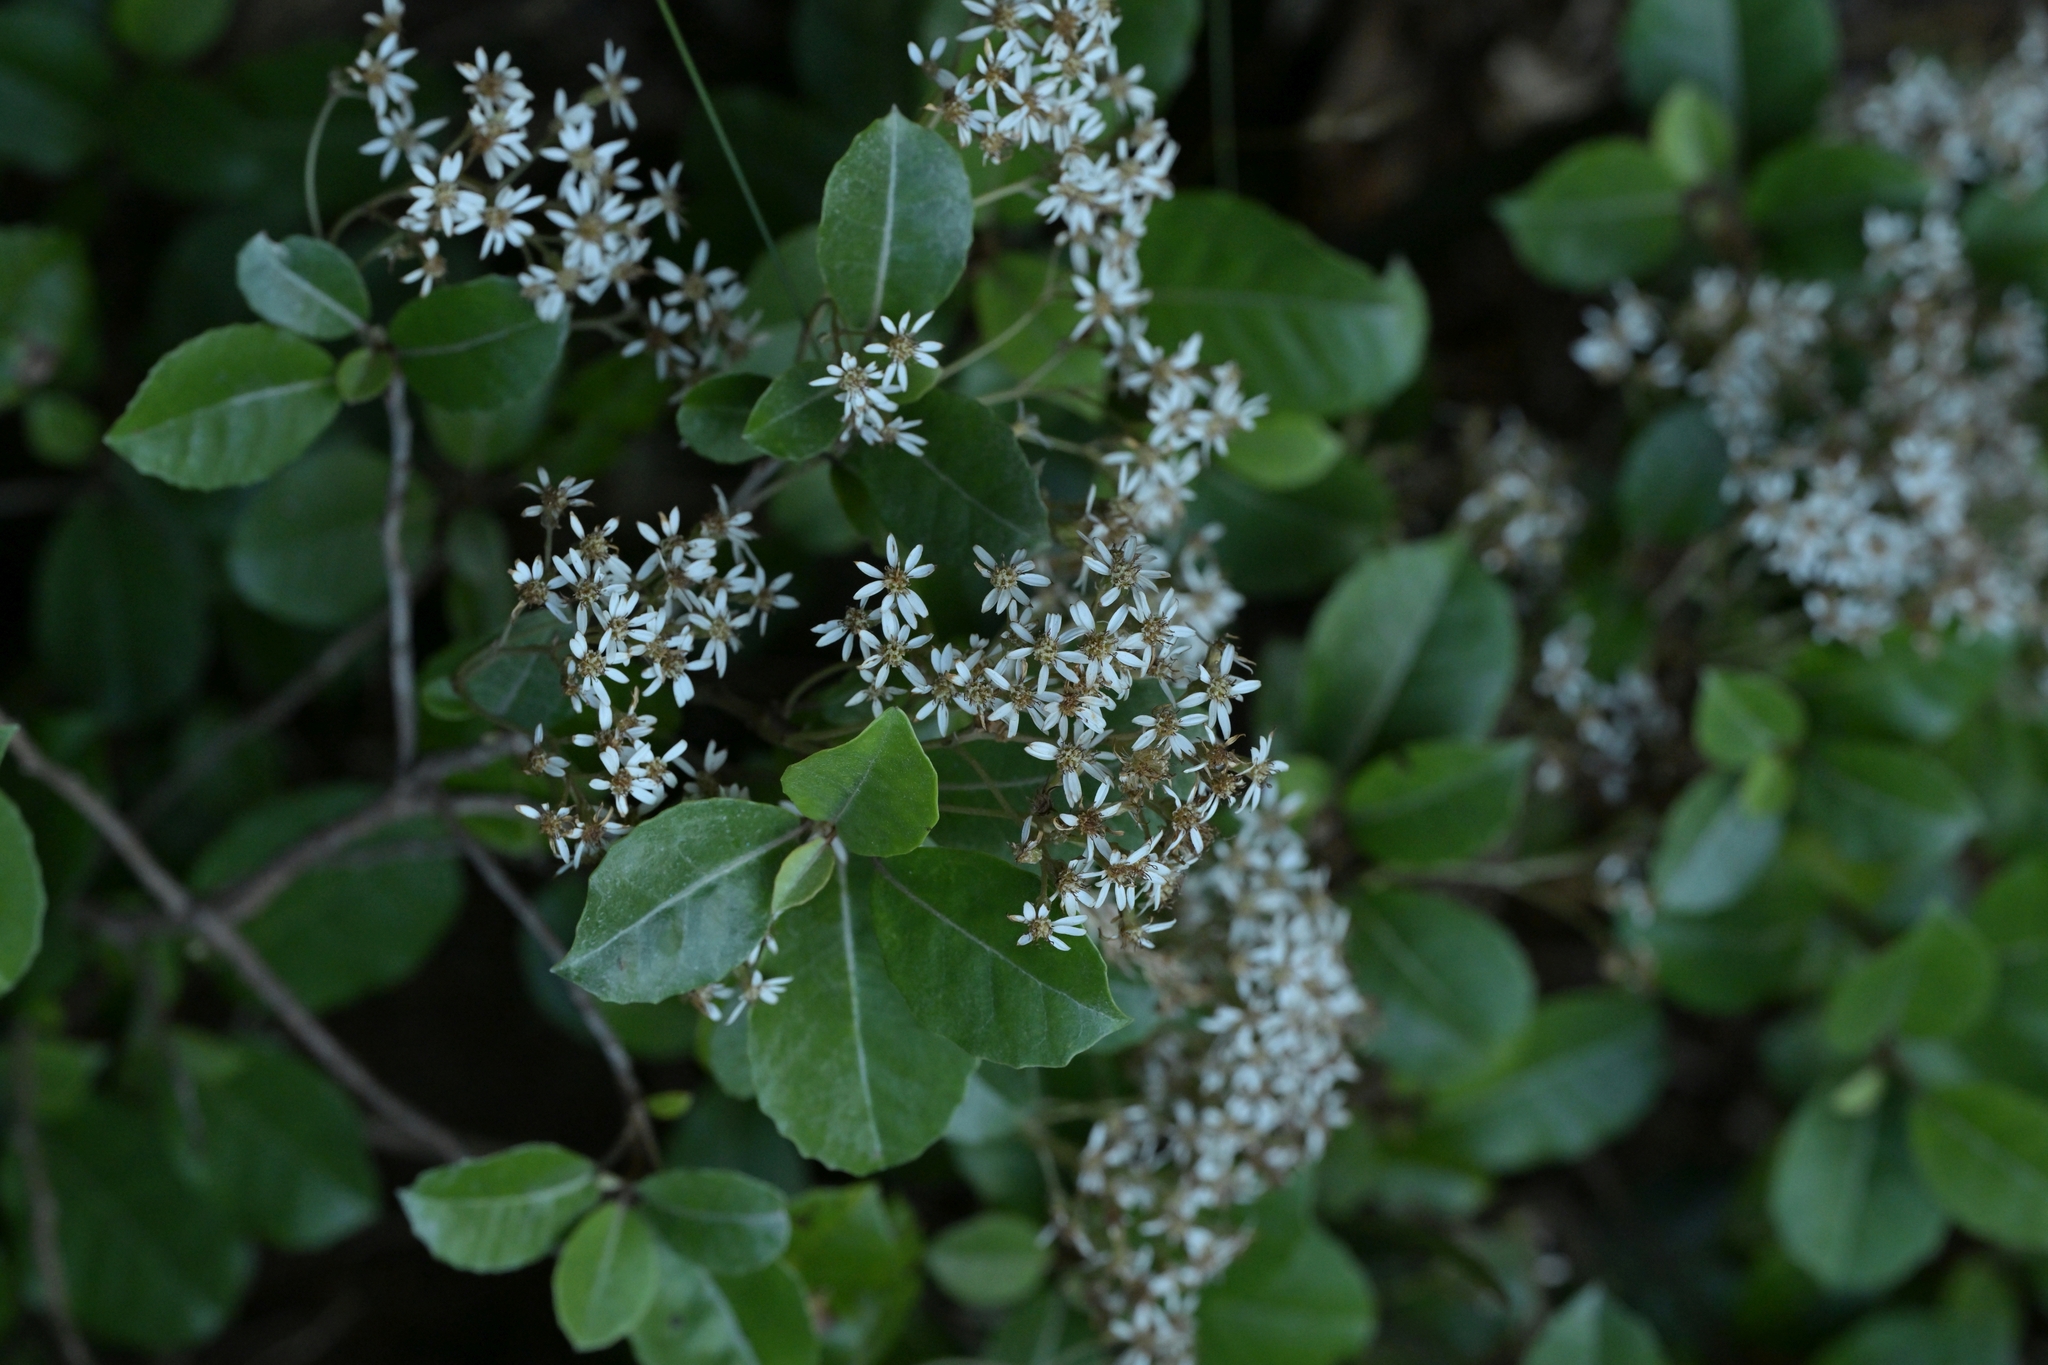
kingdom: Plantae
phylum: Tracheophyta
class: Magnoliopsida
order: Asterales
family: Asteraceae
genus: Olearia
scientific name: Olearia arborescens
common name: Glossy tree daisy
